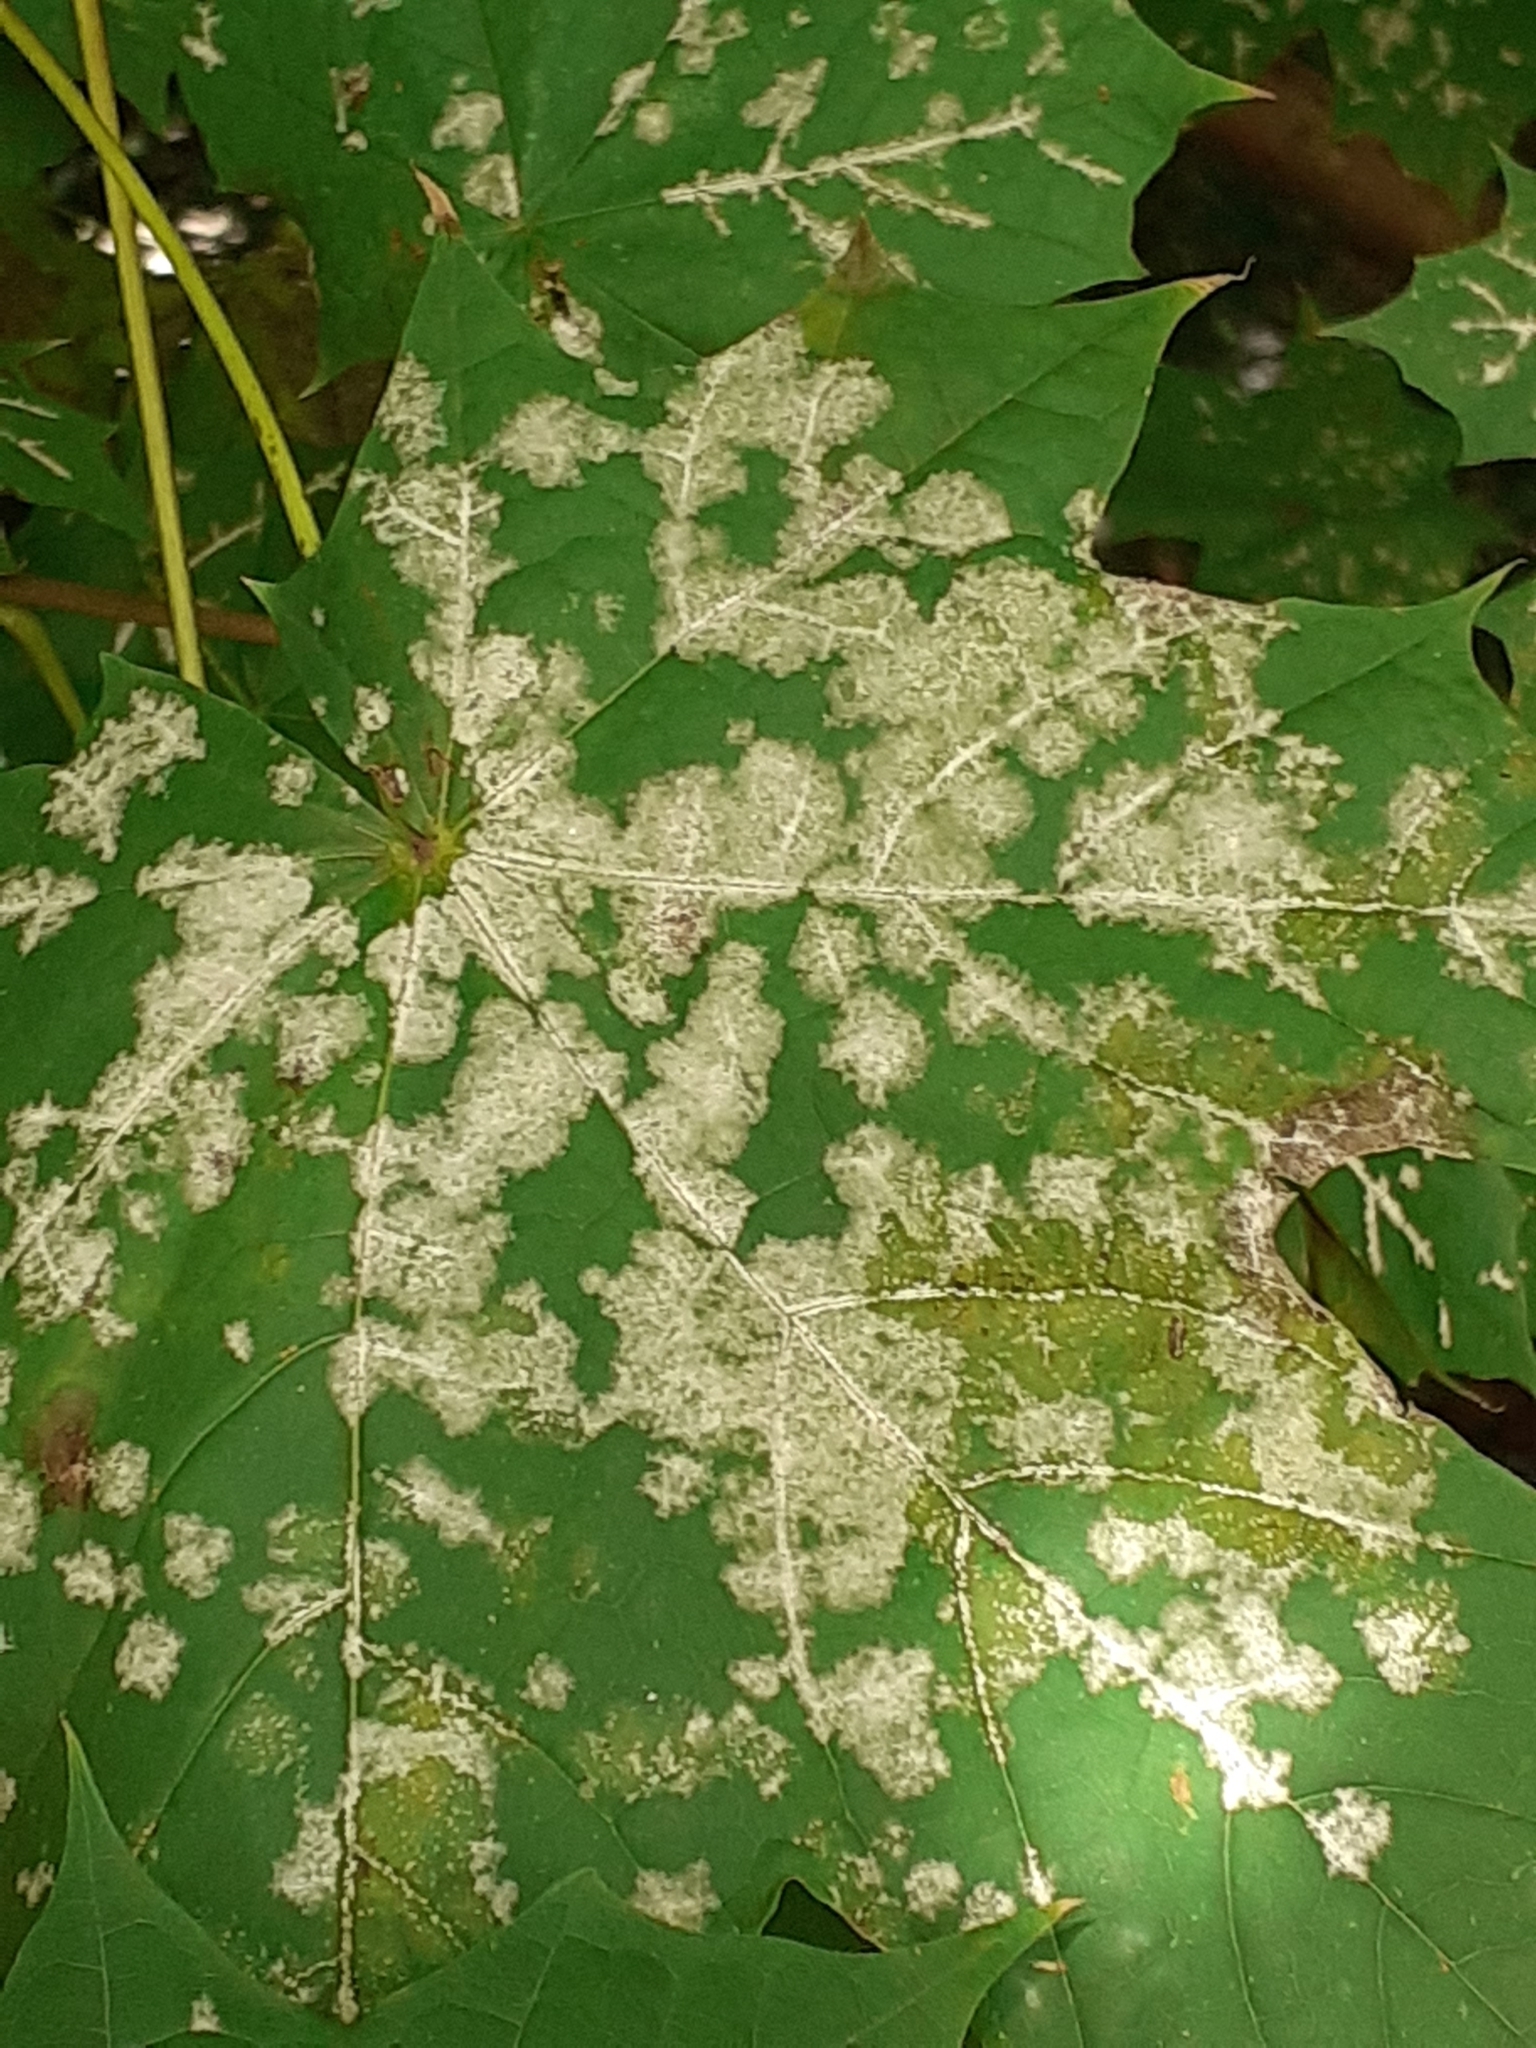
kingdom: Fungi
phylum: Ascomycota
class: Leotiomycetes
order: Helotiales
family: Erysiphaceae
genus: Sawadaea
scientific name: Sawadaea tulasnei
